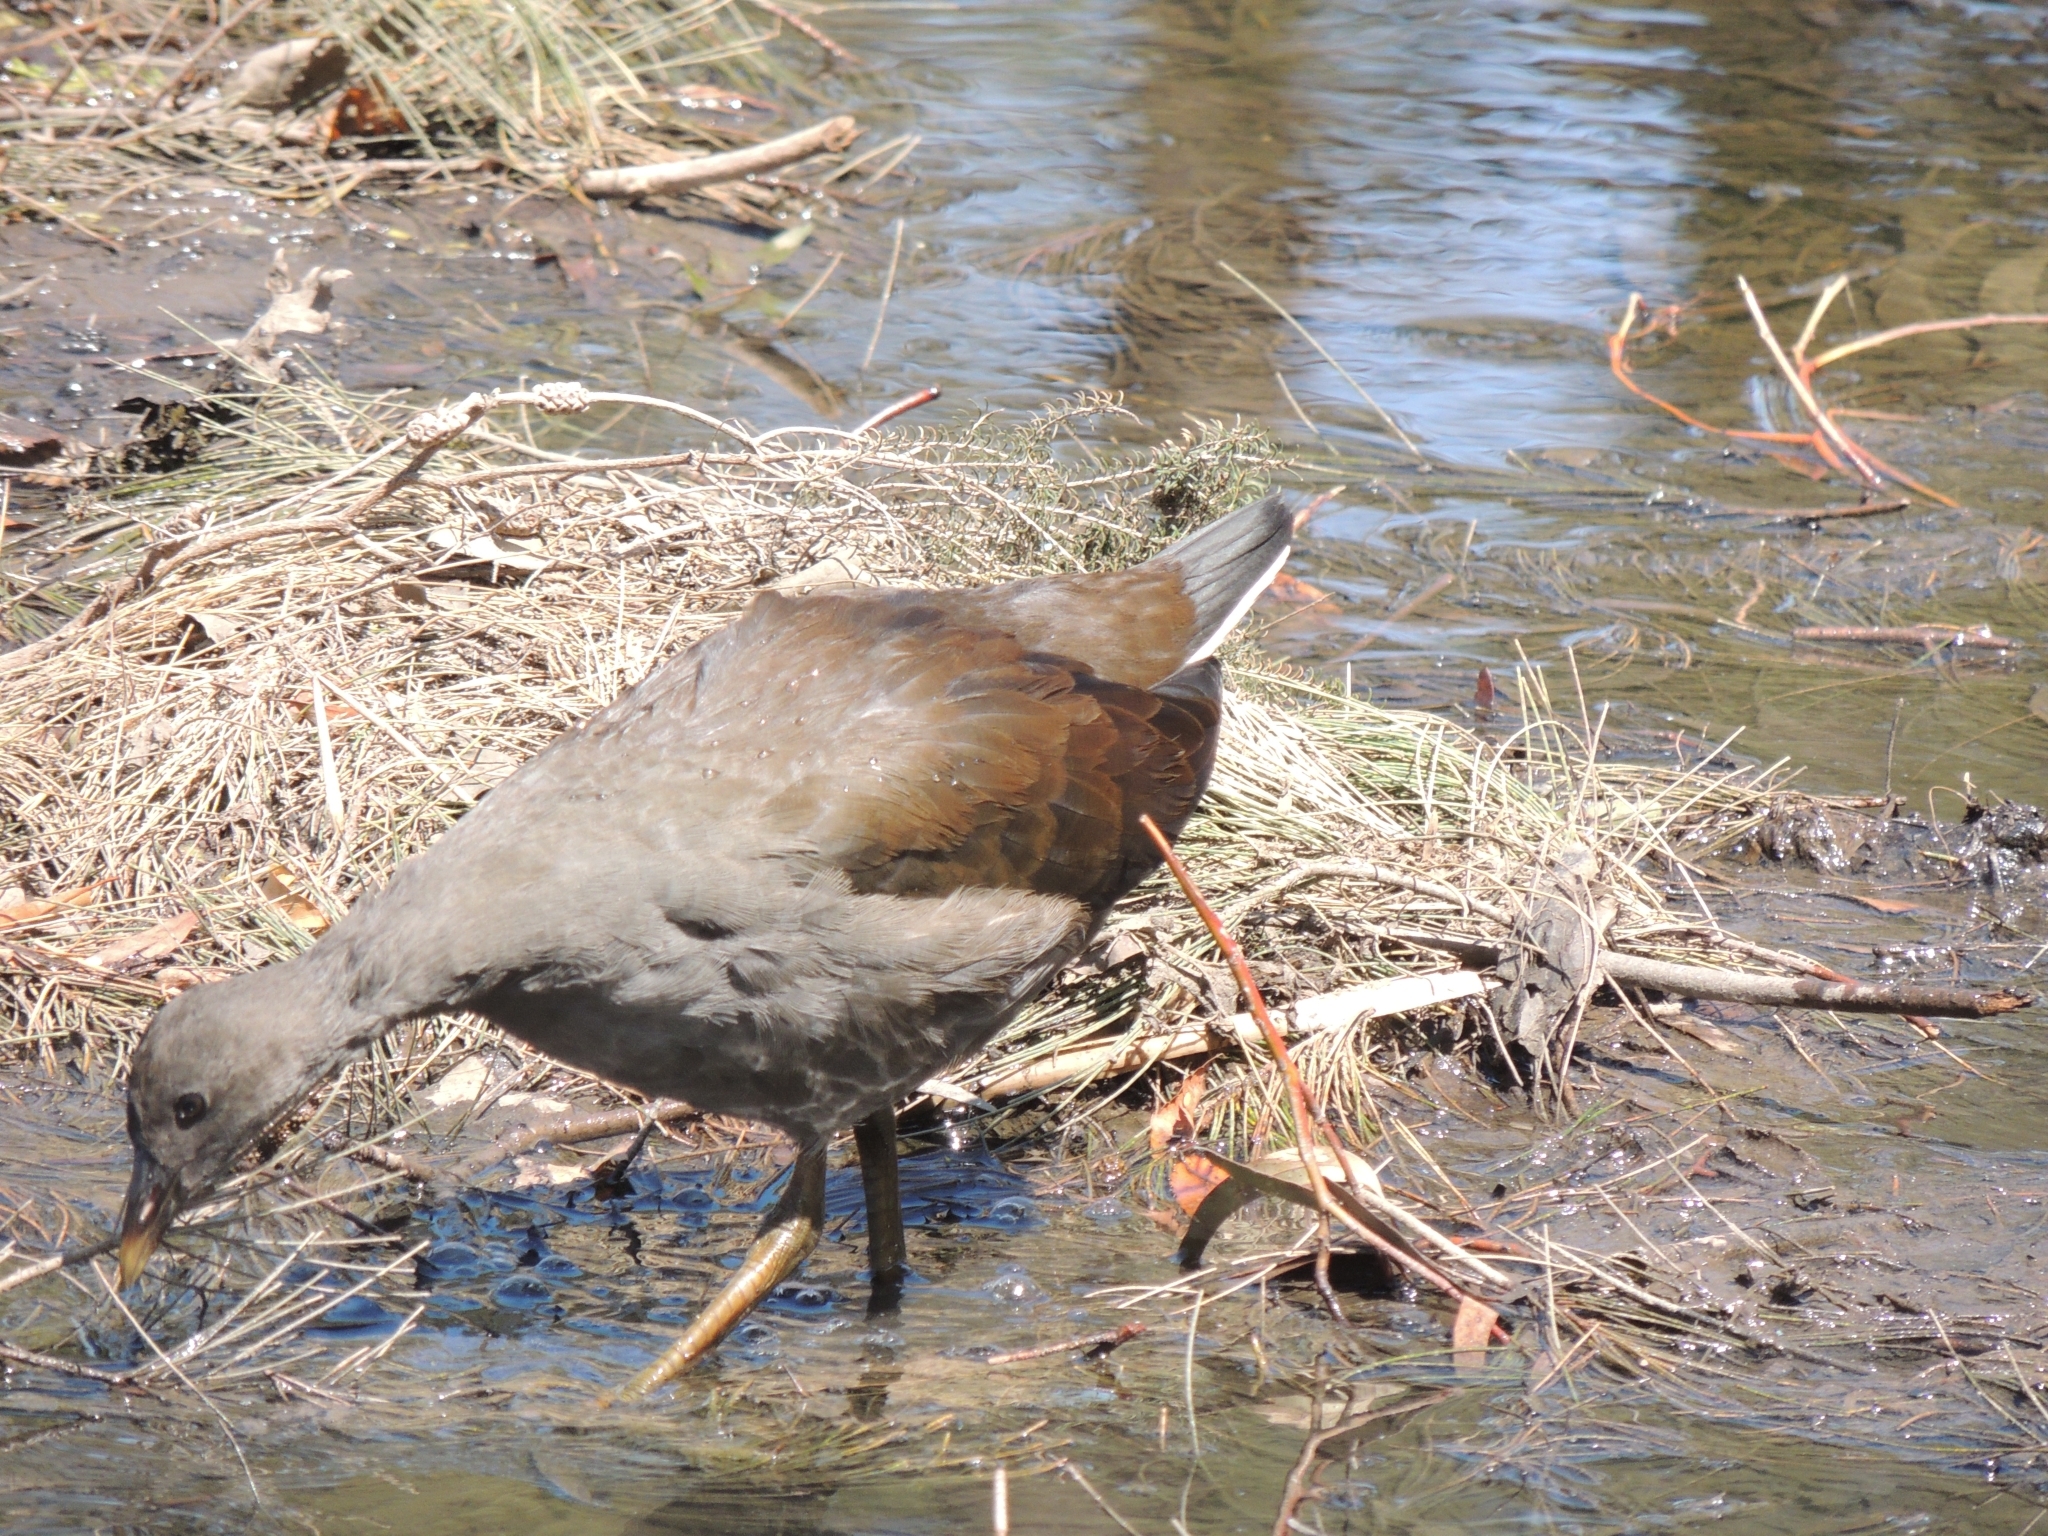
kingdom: Animalia
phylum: Chordata
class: Aves
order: Gruiformes
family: Rallidae
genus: Gallinula
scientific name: Gallinula tenebrosa
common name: Dusky moorhen
